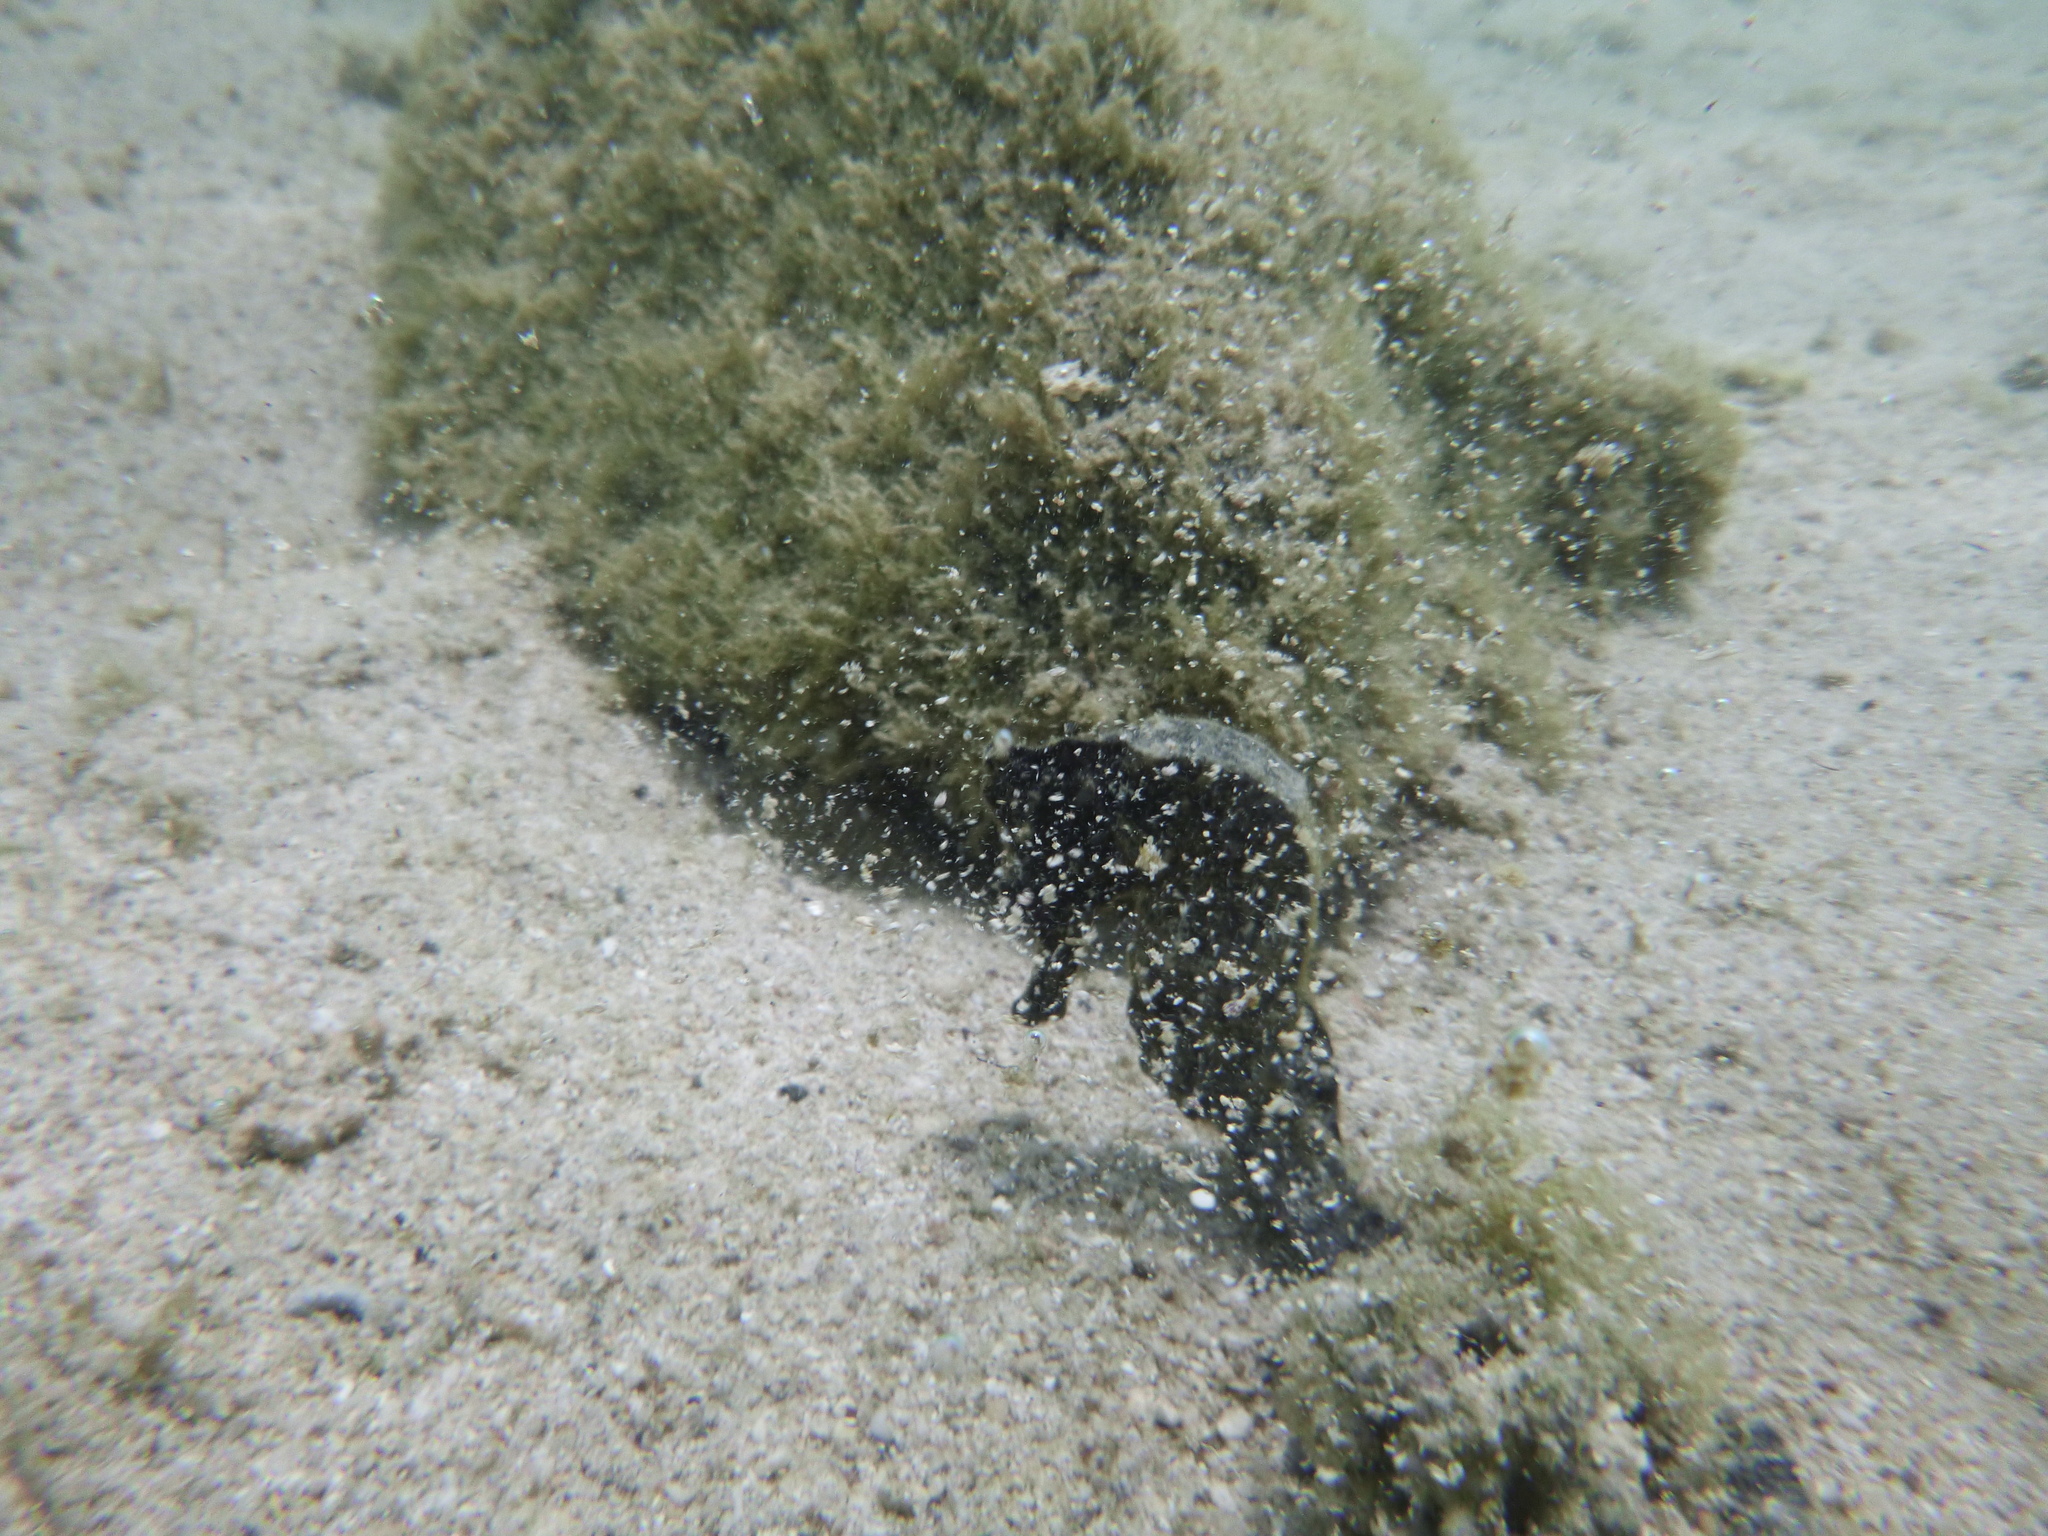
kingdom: Animalia
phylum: Chordata
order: Syngnathiformes
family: Syngnathidae
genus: Hippocampus
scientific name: Hippocampus ingens
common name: Giant seahorse
